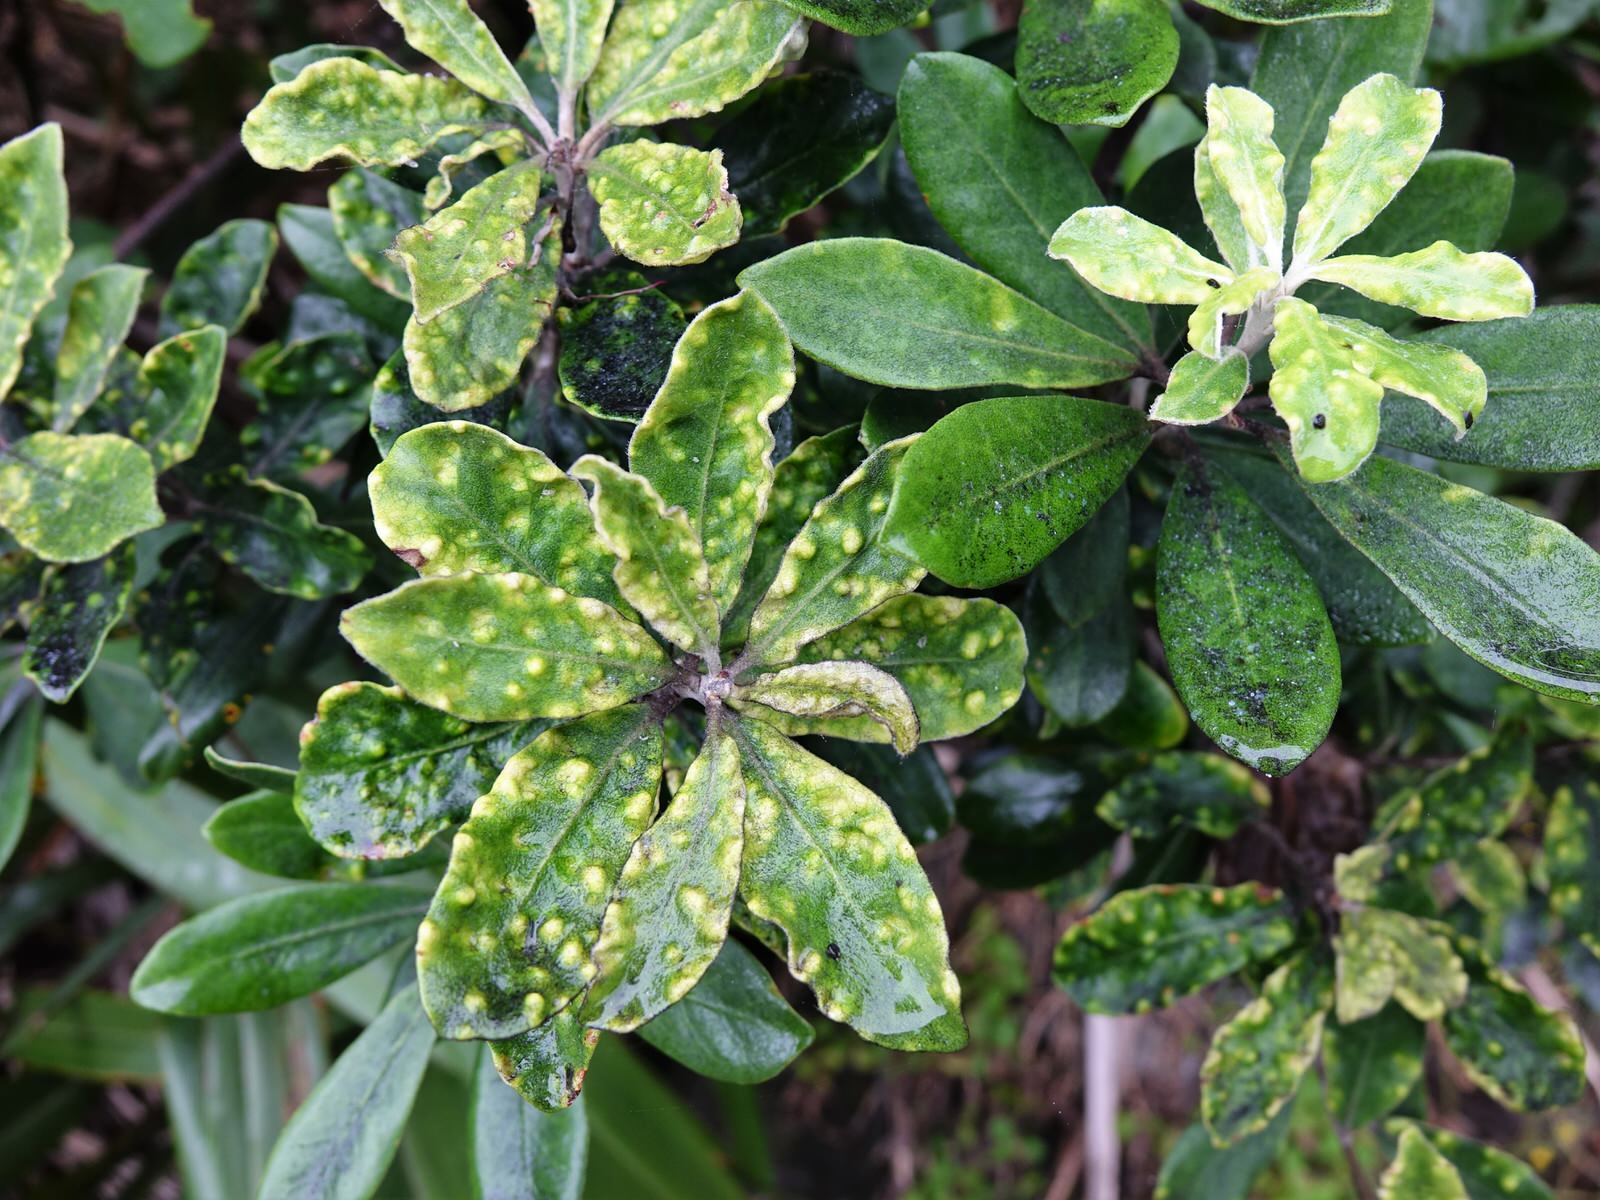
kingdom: Plantae
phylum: Tracheophyta
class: Magnoliopsida
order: Apiales
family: Pittosporaceae
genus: Pittosporum
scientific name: Pittosporum crassifolium
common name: Karo
